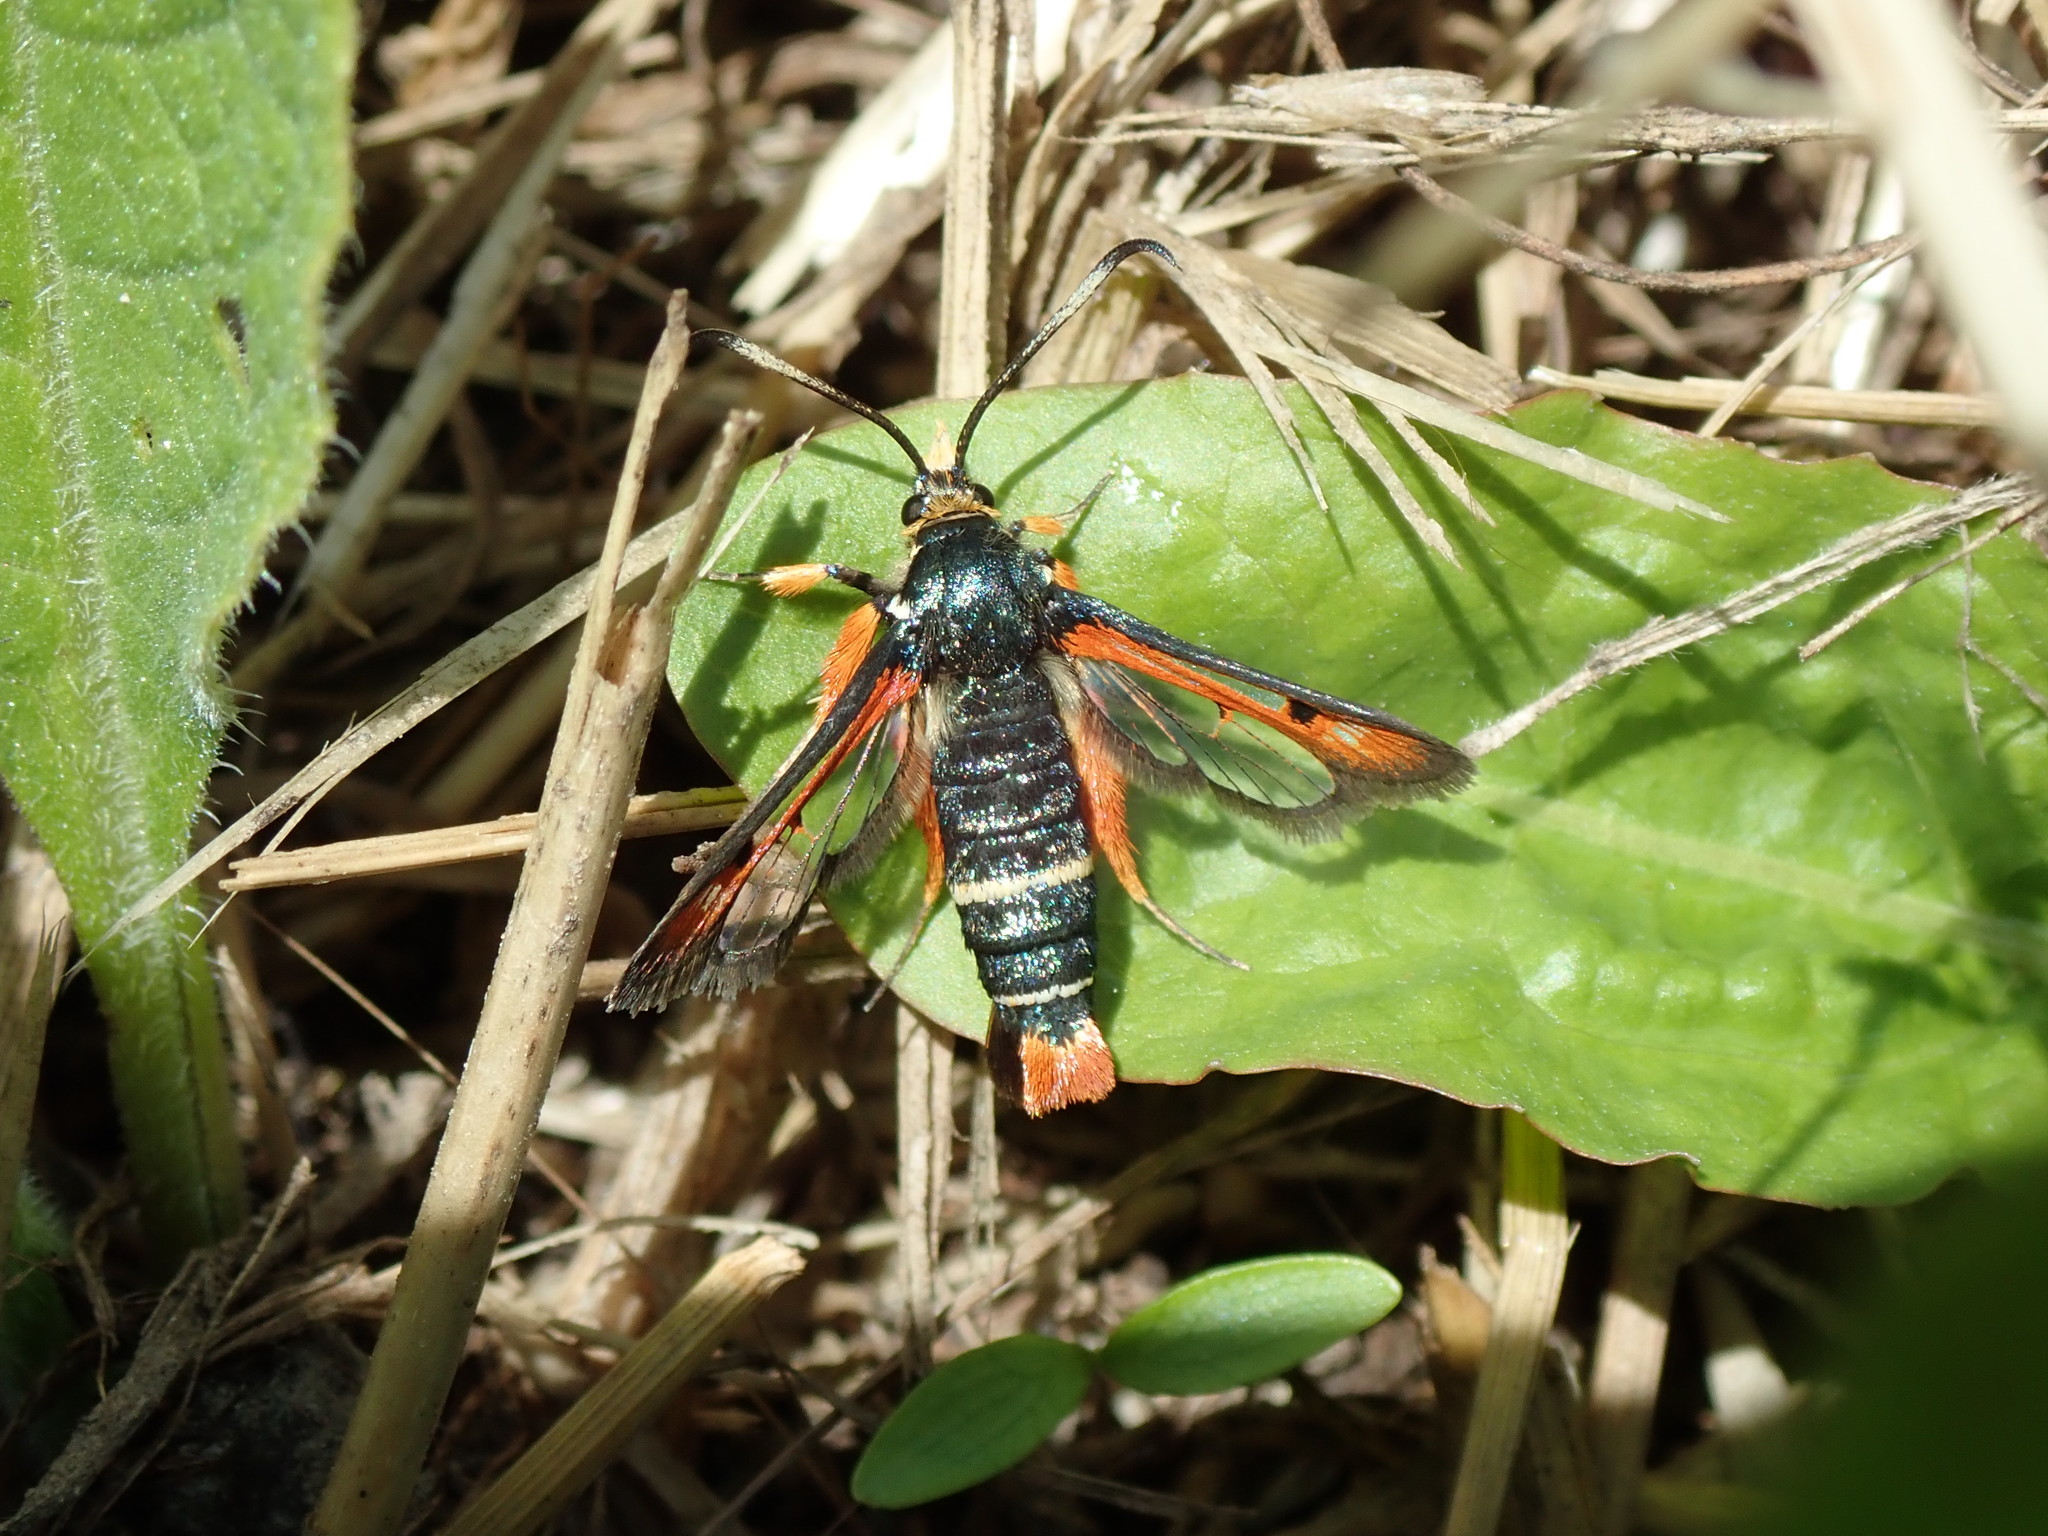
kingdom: Animalia
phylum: Arthropoda
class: Insecta
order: Lepidoptera
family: Sesiidae
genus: Pyropteron
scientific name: Pyropteron chrysidiforme
